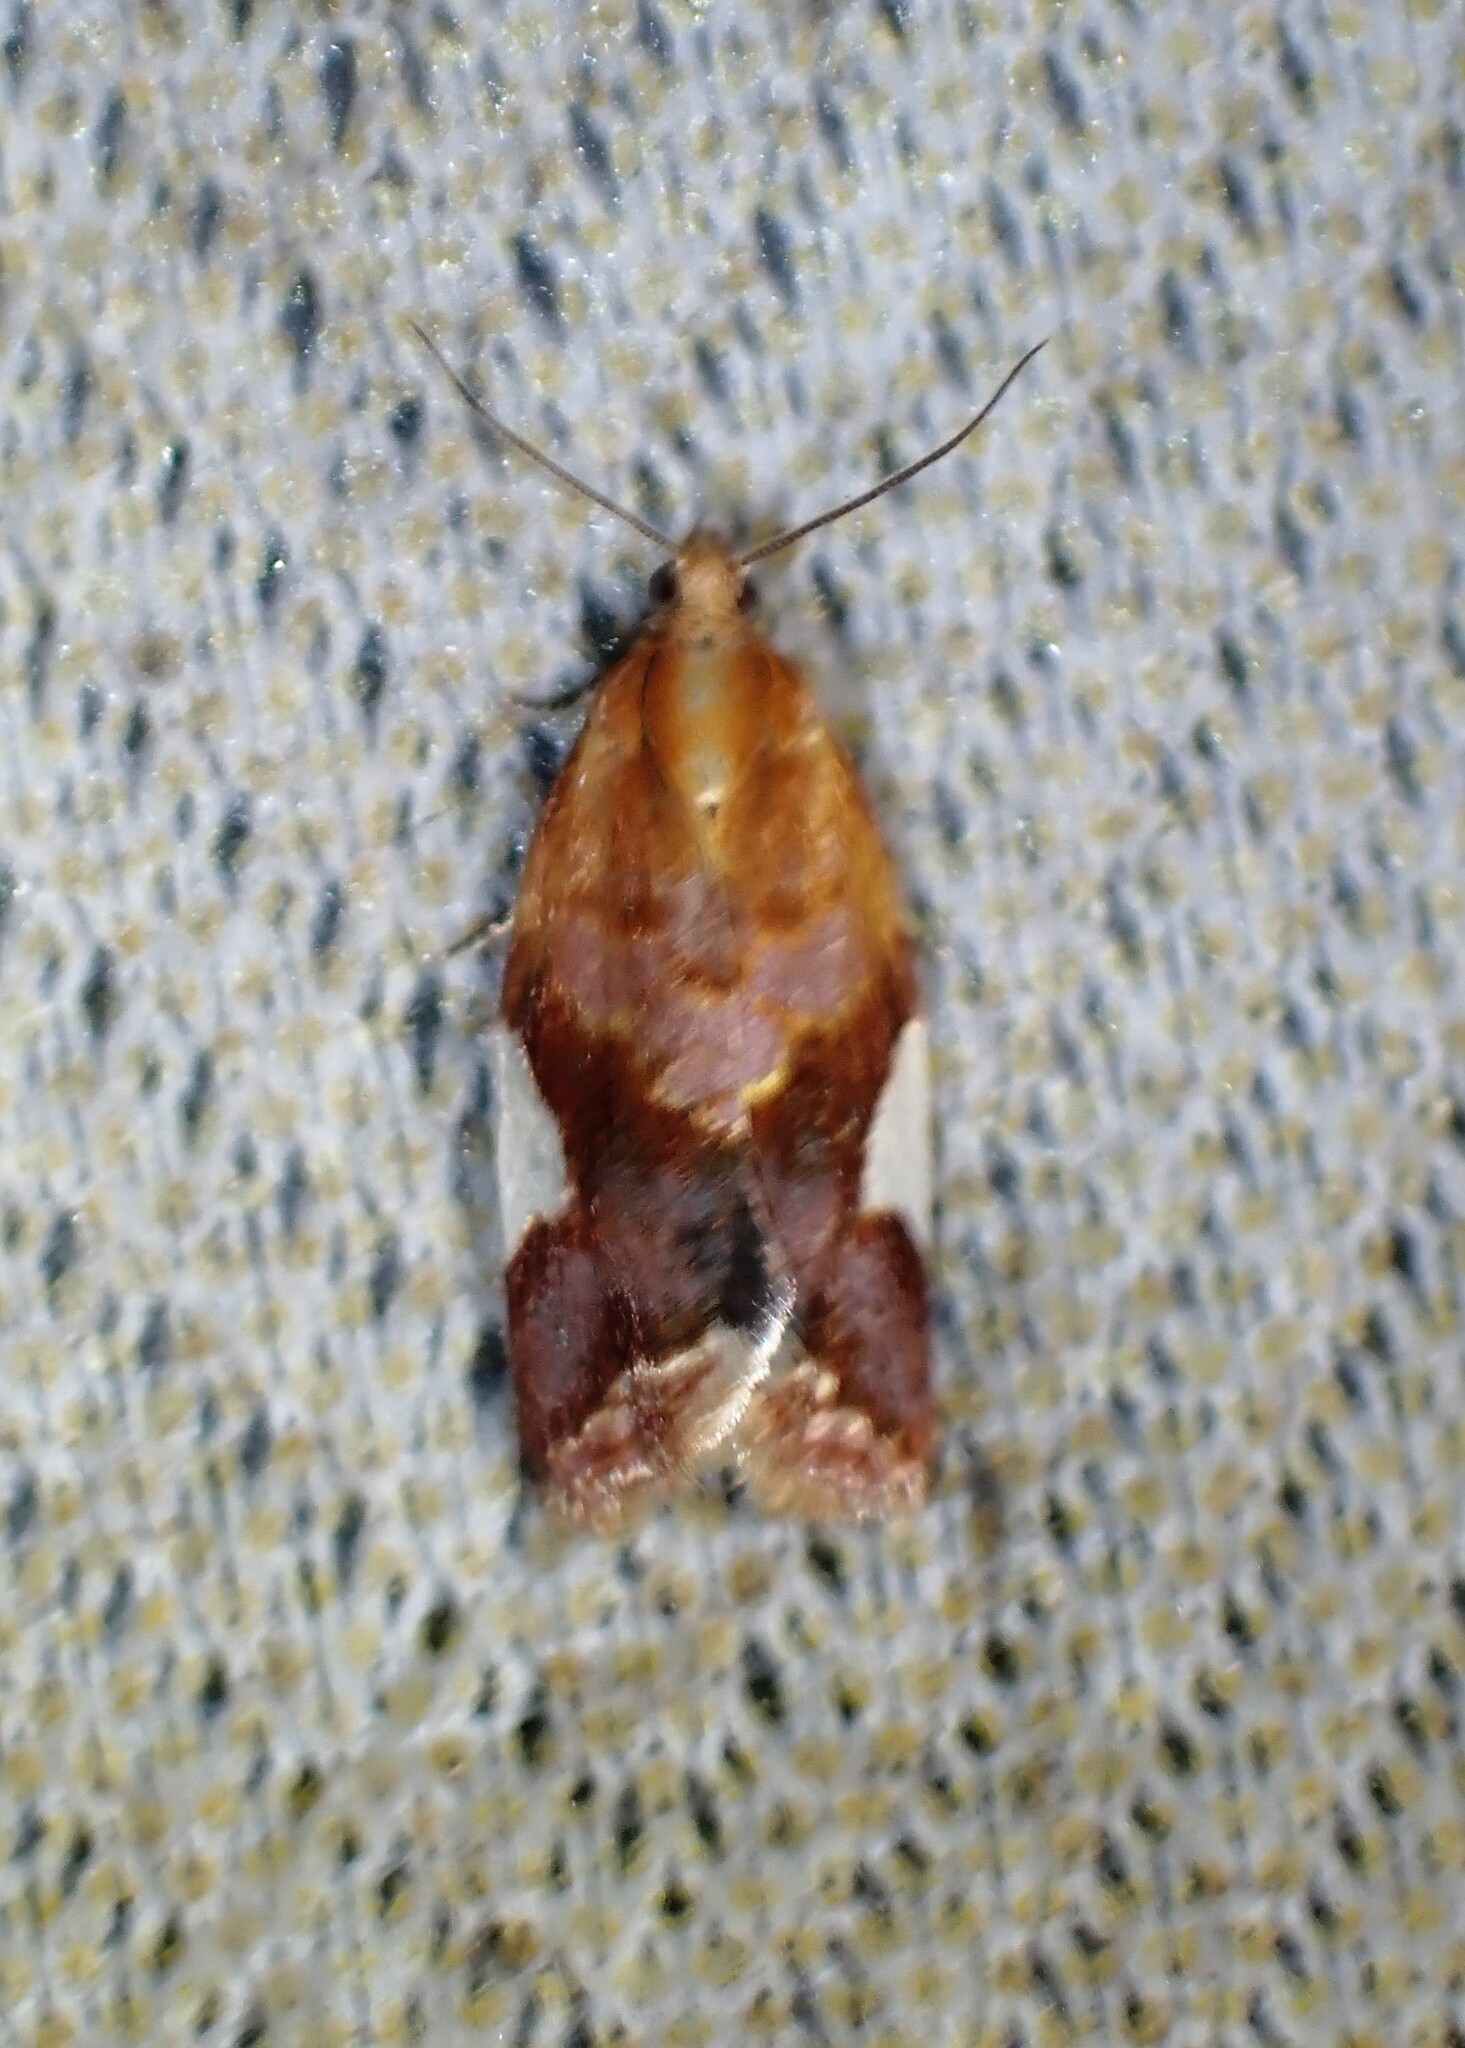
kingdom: Animalia
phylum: Arthropoda
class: Insecta
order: Lepidoptera
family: Tortricidae
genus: Clepsis
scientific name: Clepsis persicana
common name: White triangle tortrix
